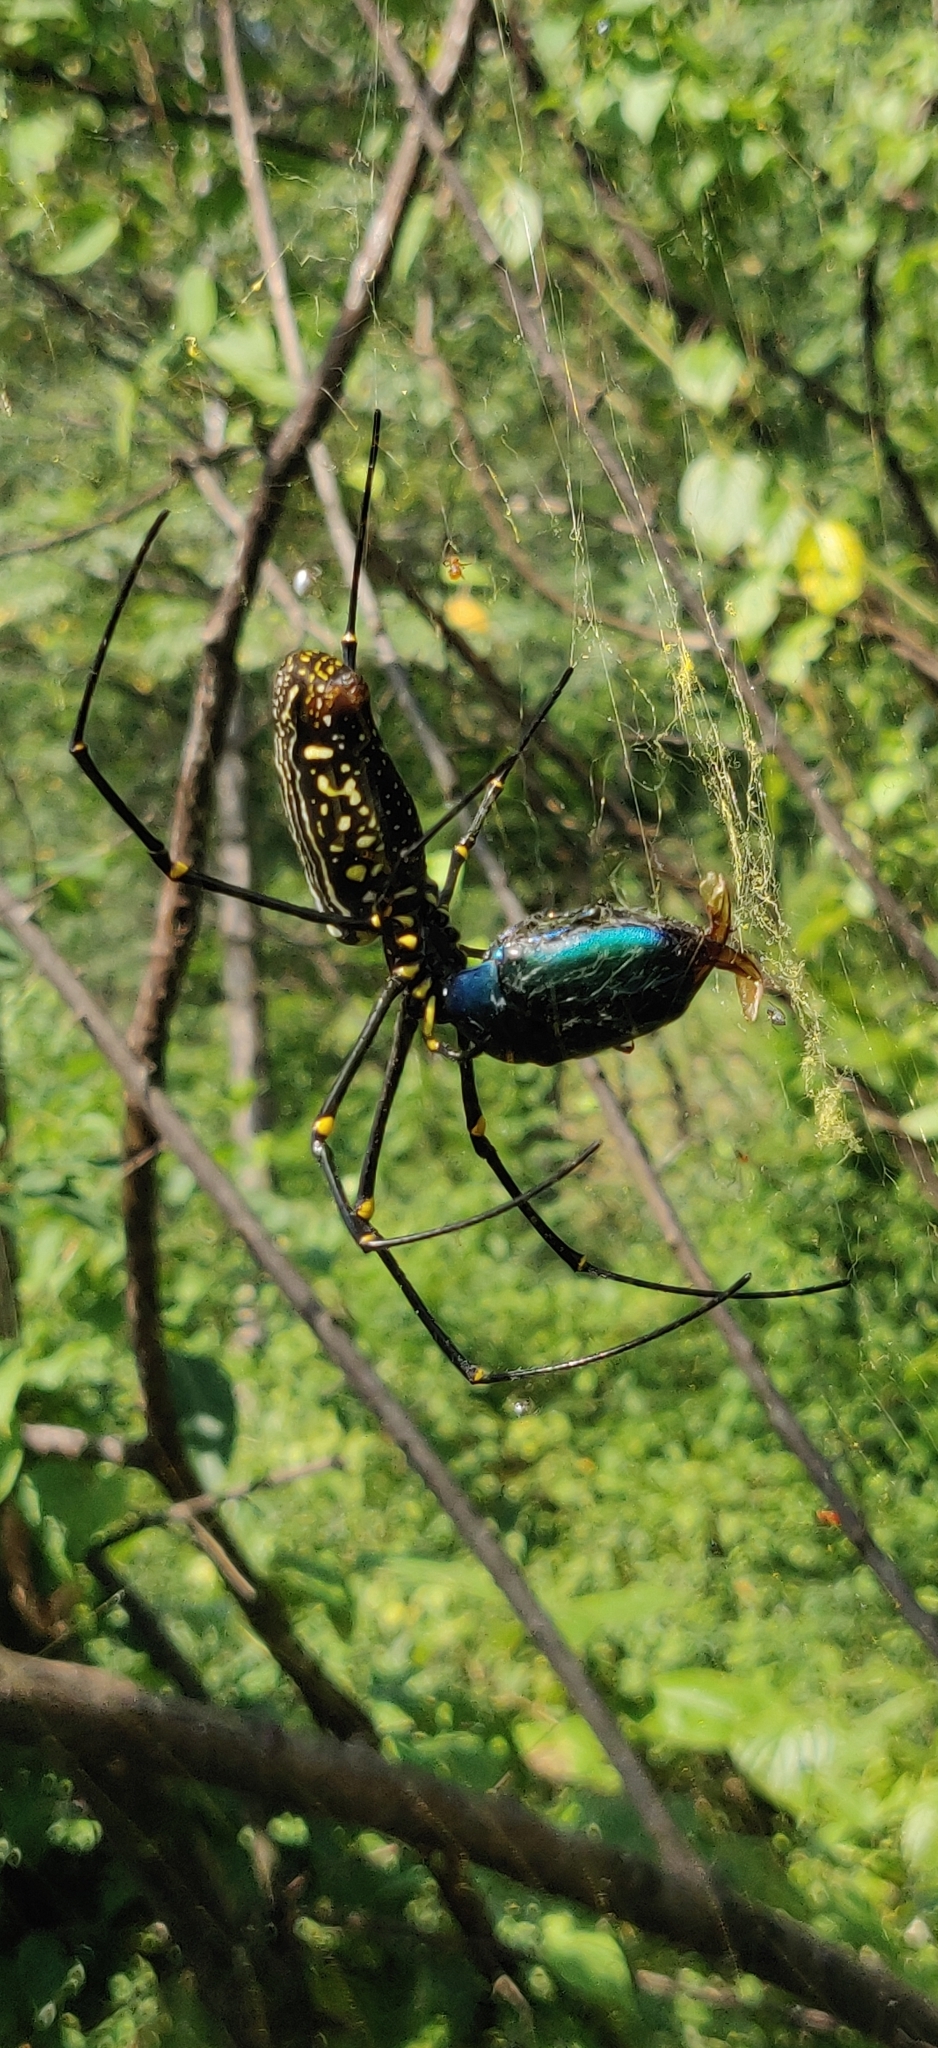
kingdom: Animalia
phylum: Arthropoda
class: Arachnida
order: Araneae
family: Araneidae
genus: Nephila
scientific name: Nephila pilipes
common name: Giant golden orb weaver
